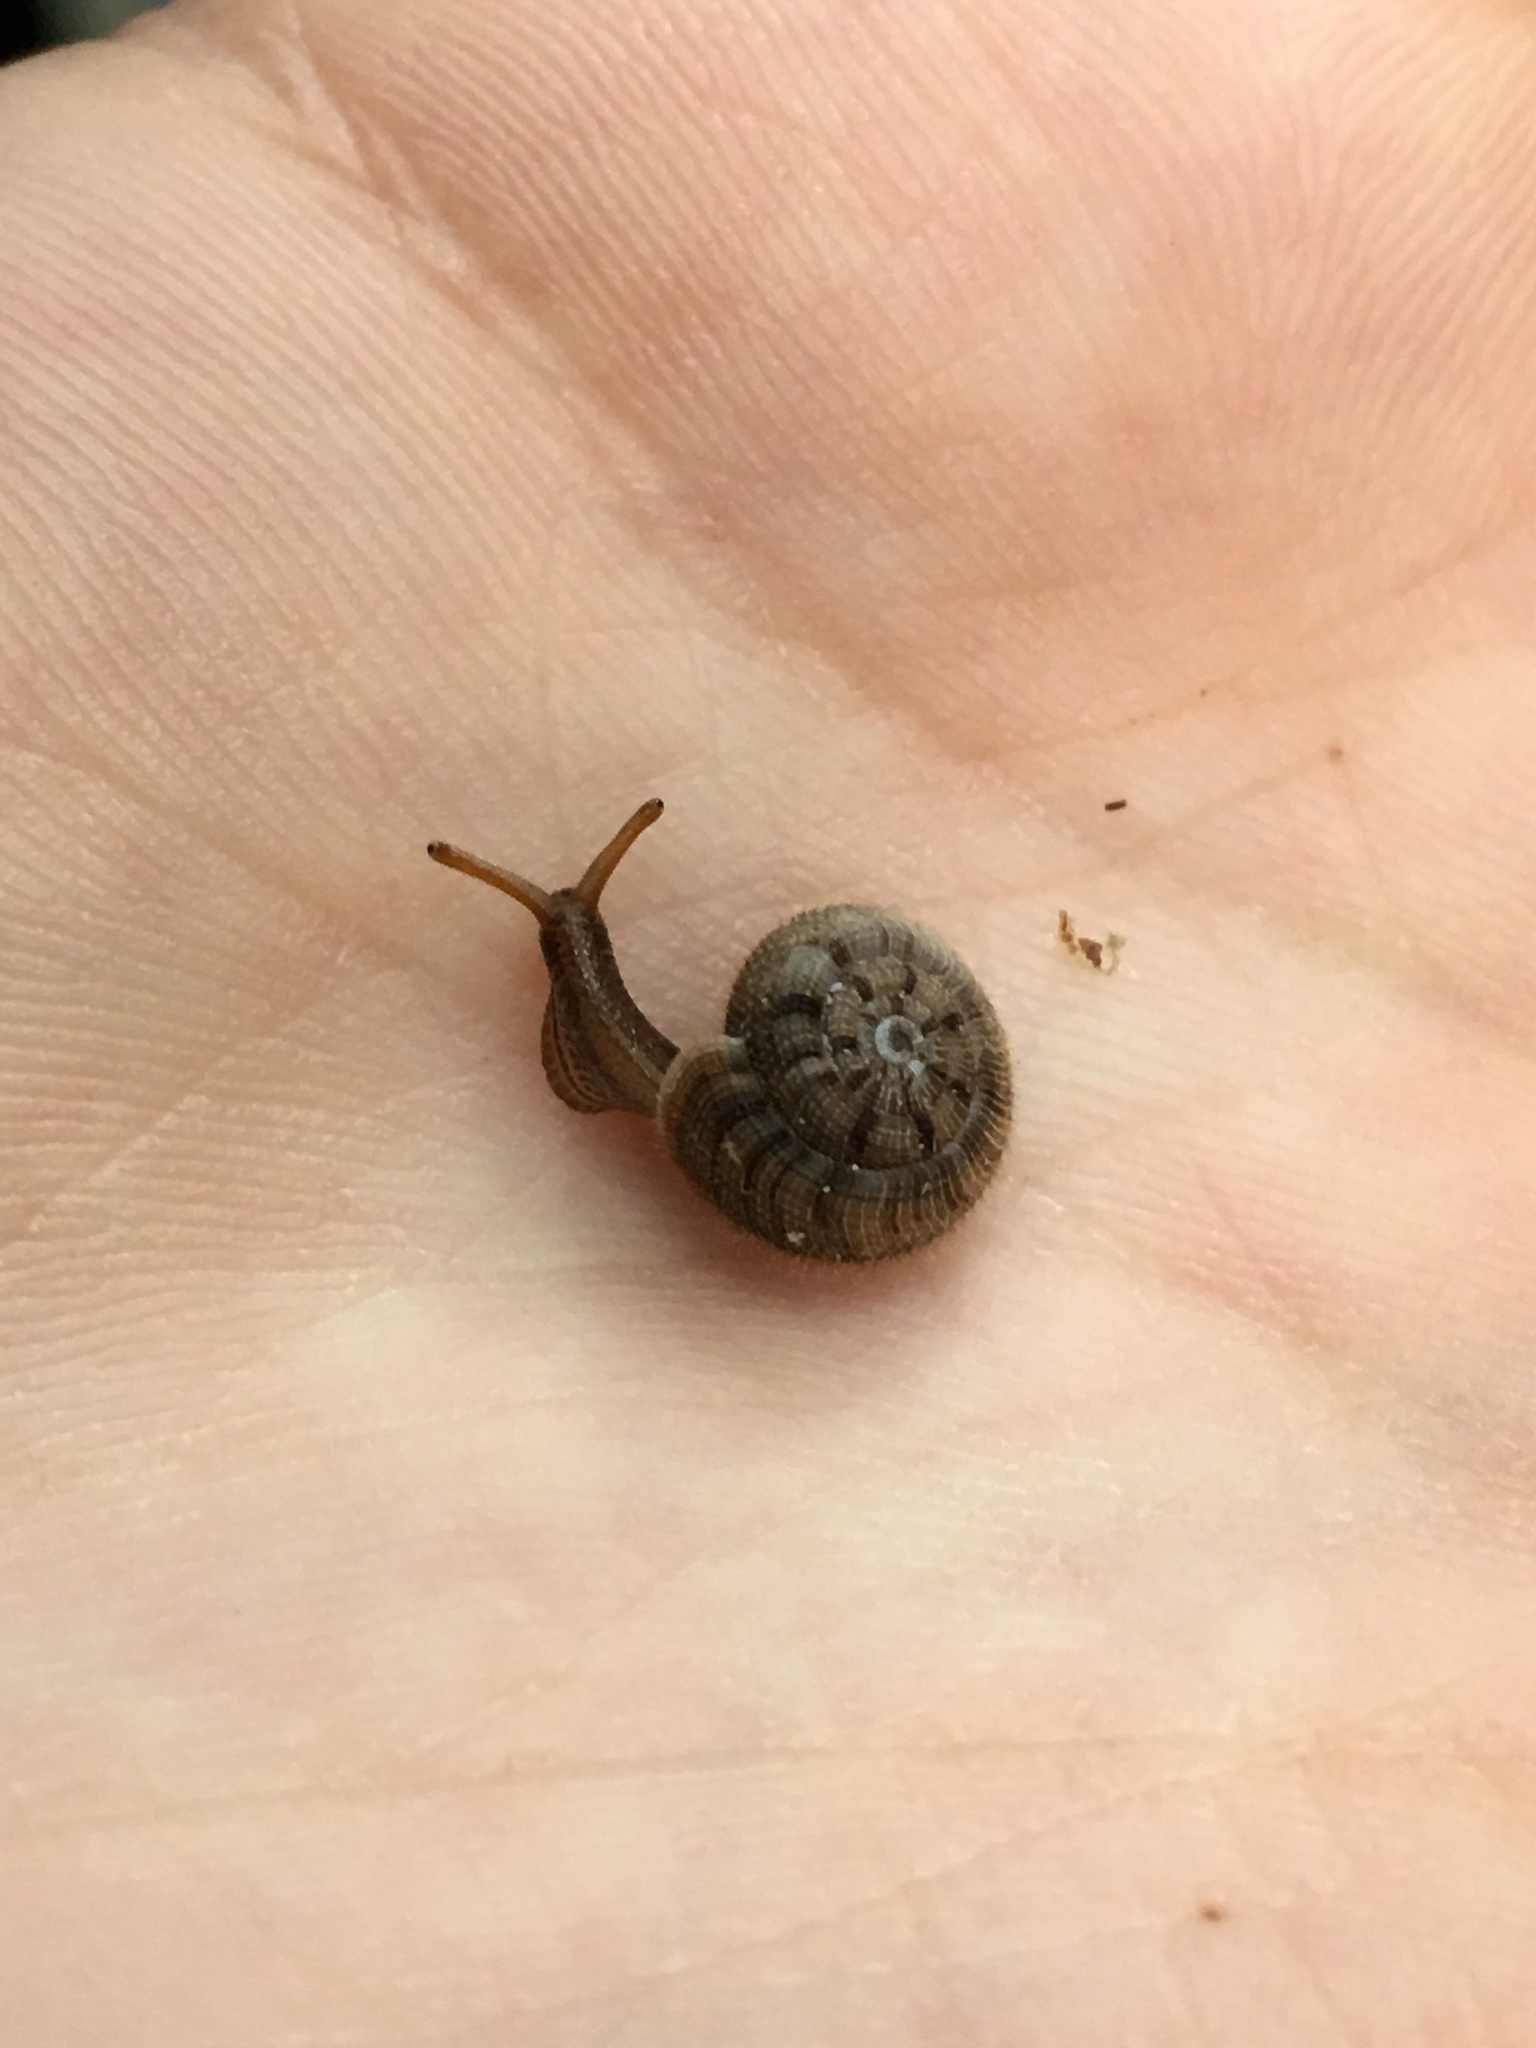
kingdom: Animalia
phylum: Mollusca
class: Gastropoda
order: Stylommatophora
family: Charopidae
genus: Suteria
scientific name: Suteria ide
